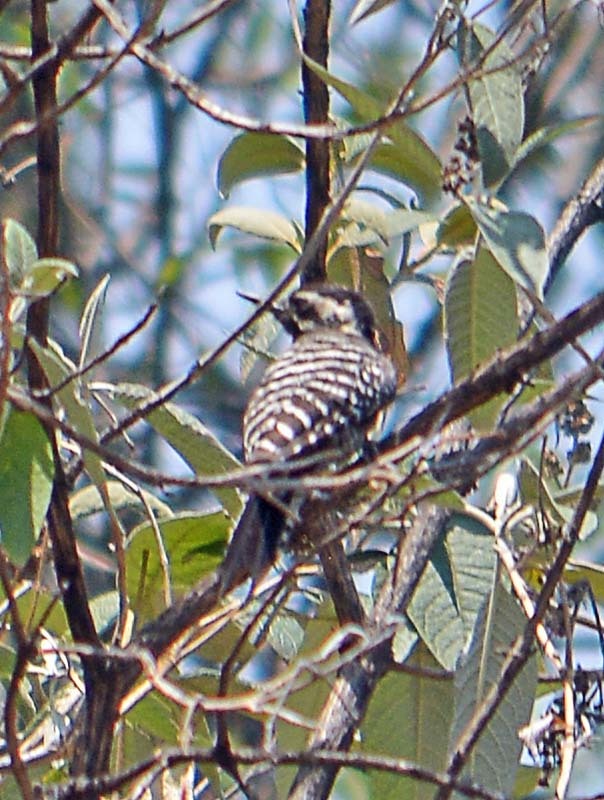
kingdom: Animalia
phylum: Chordata
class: Aves
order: Piciformes
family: Picidae
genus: Dryobates
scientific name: Dryobates scalaris
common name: Ladder-backed woodpecker
